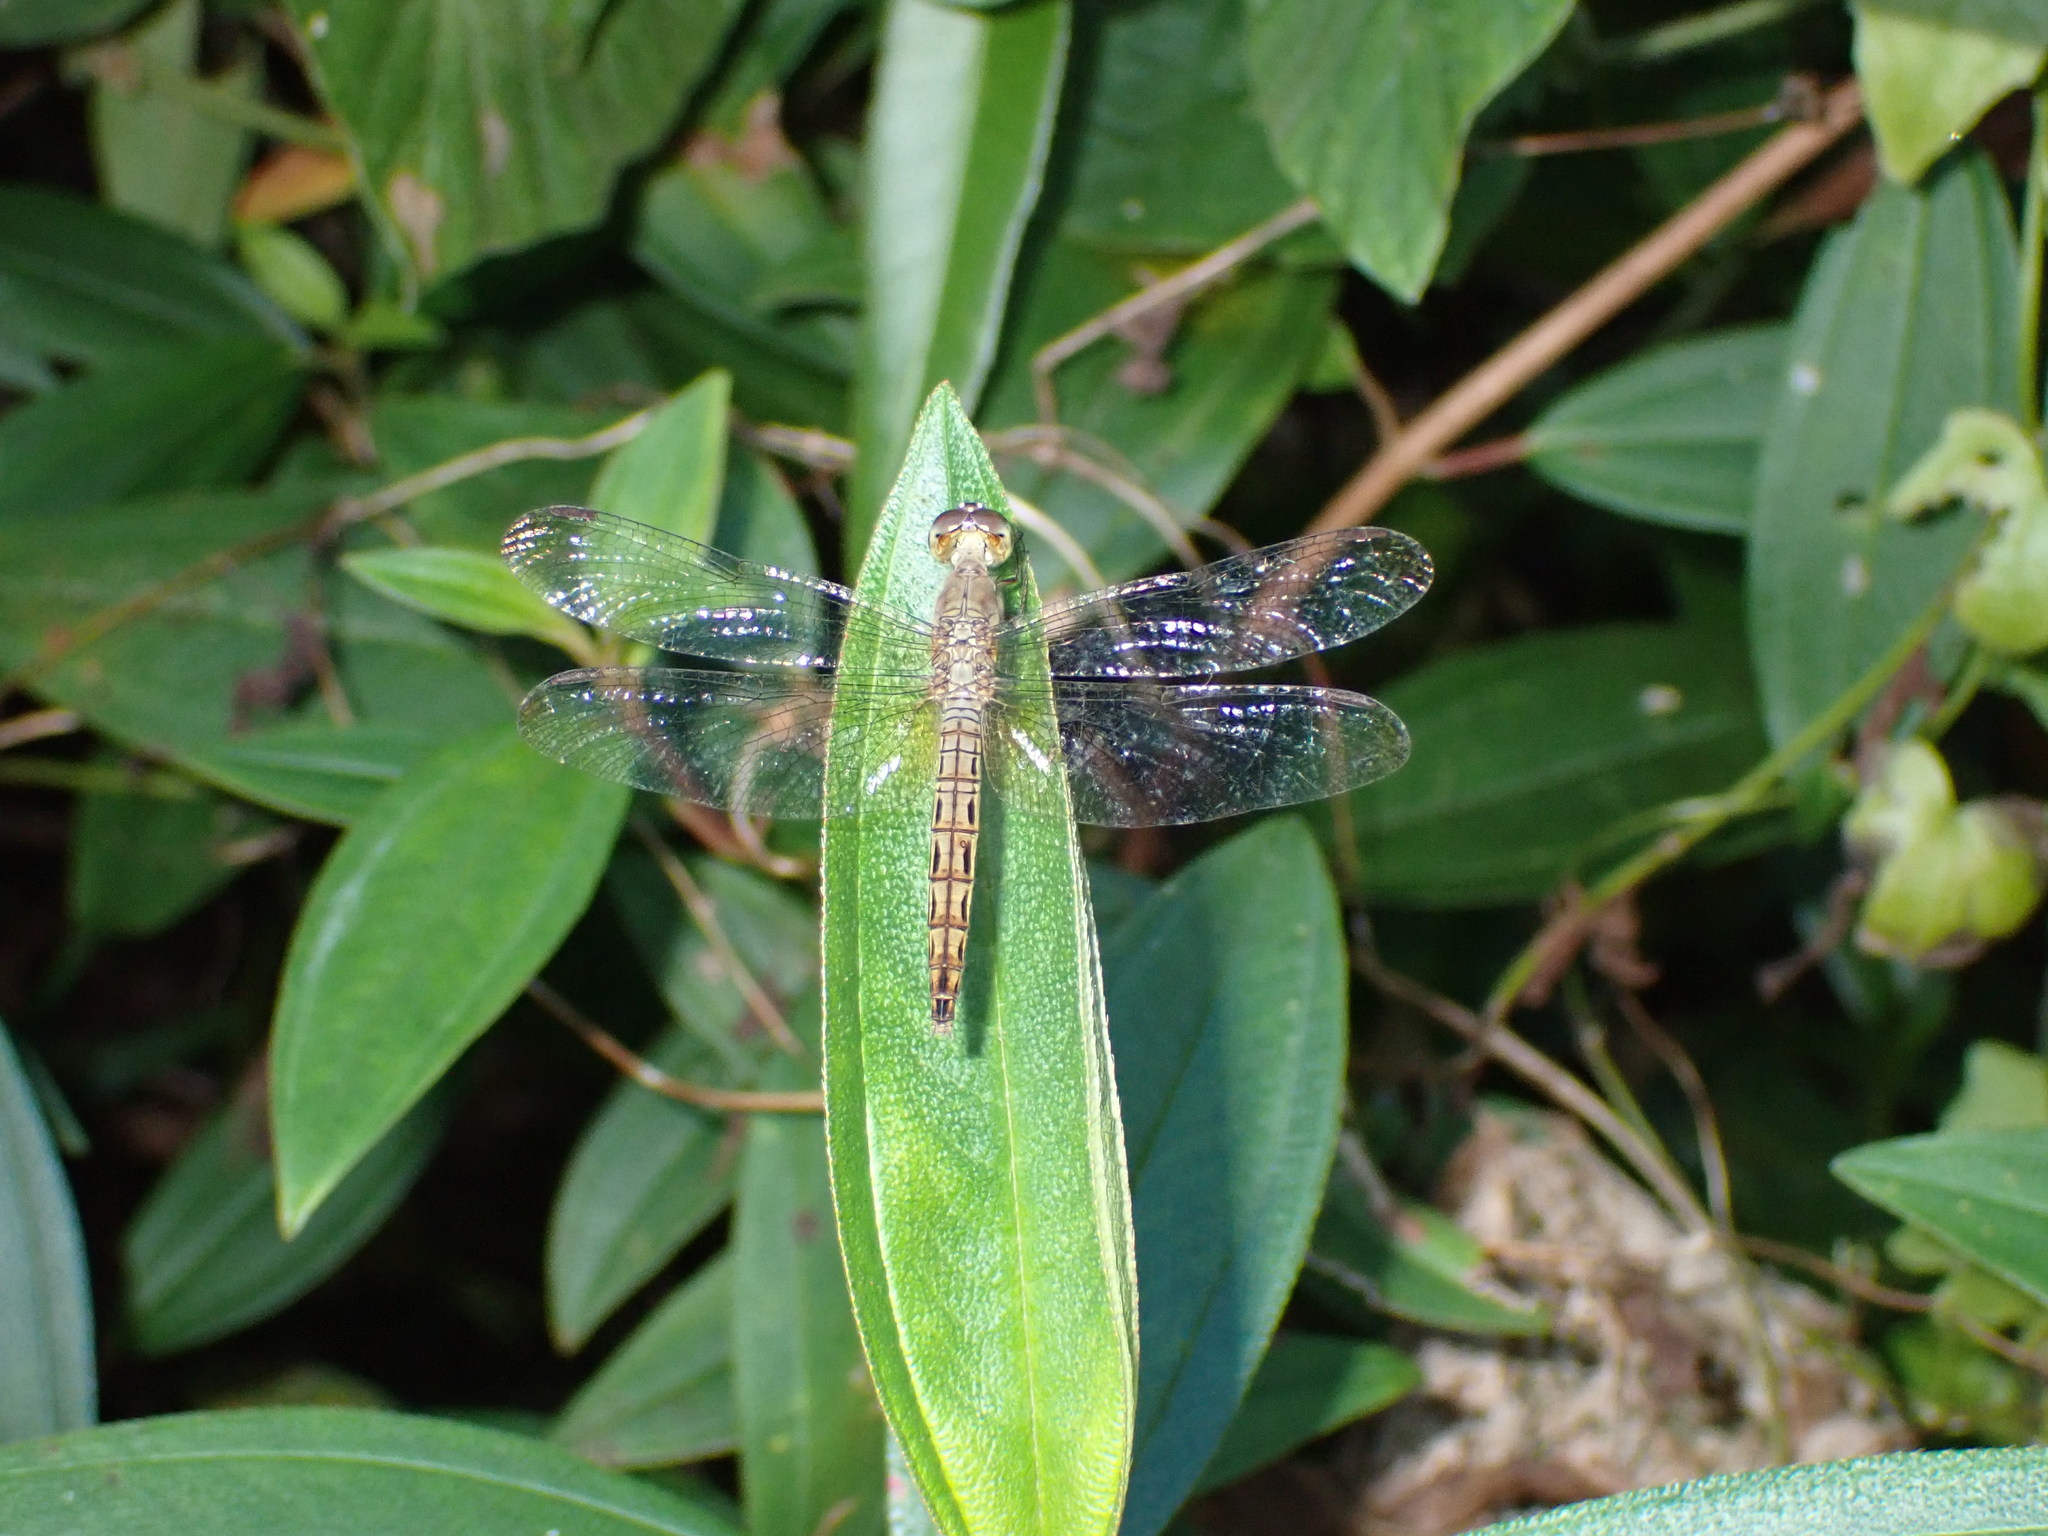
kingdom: Animalia
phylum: Arthropoda
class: Insecta
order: Odonata
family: Libellulidae
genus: Neurothemis
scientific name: Neurothemis fluctuans
